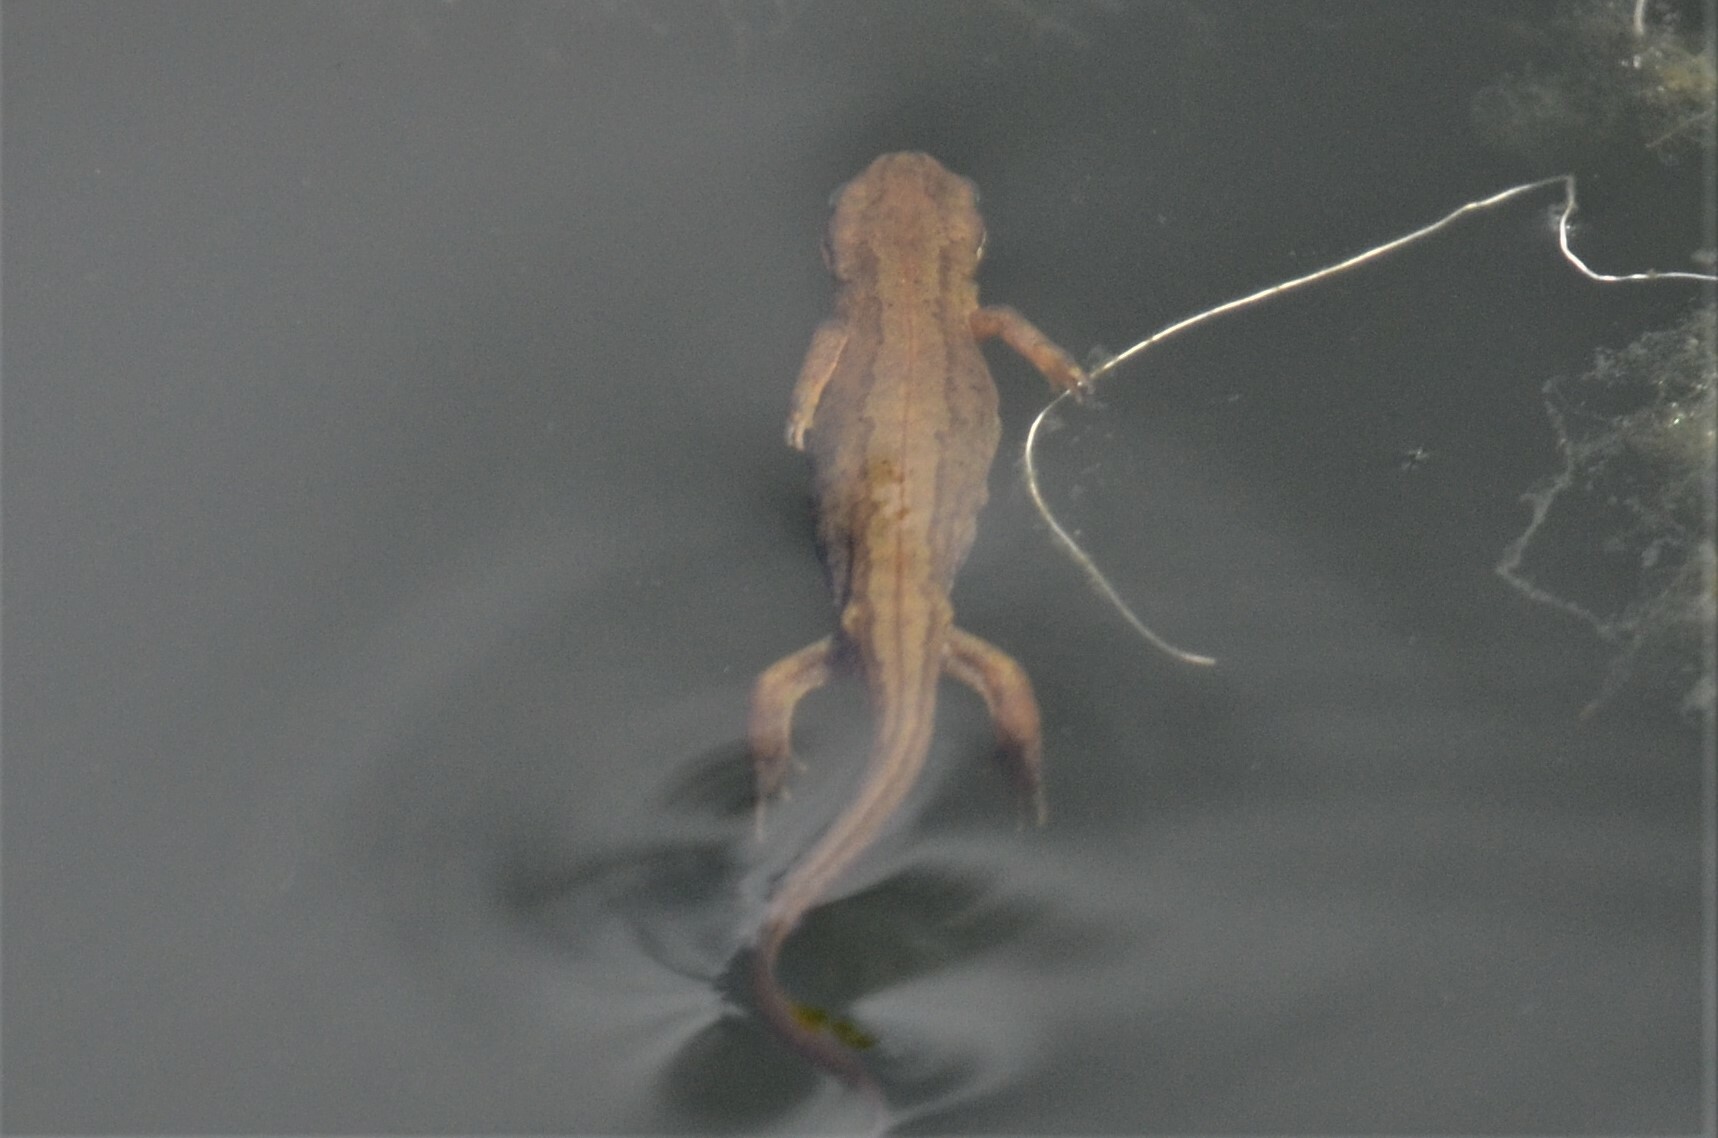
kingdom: Animalia
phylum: Chordata
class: Amphibia
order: Caudata
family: Salamandridae
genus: Lissotriton
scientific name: Lissotriton vulgaris
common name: Smooth newt
